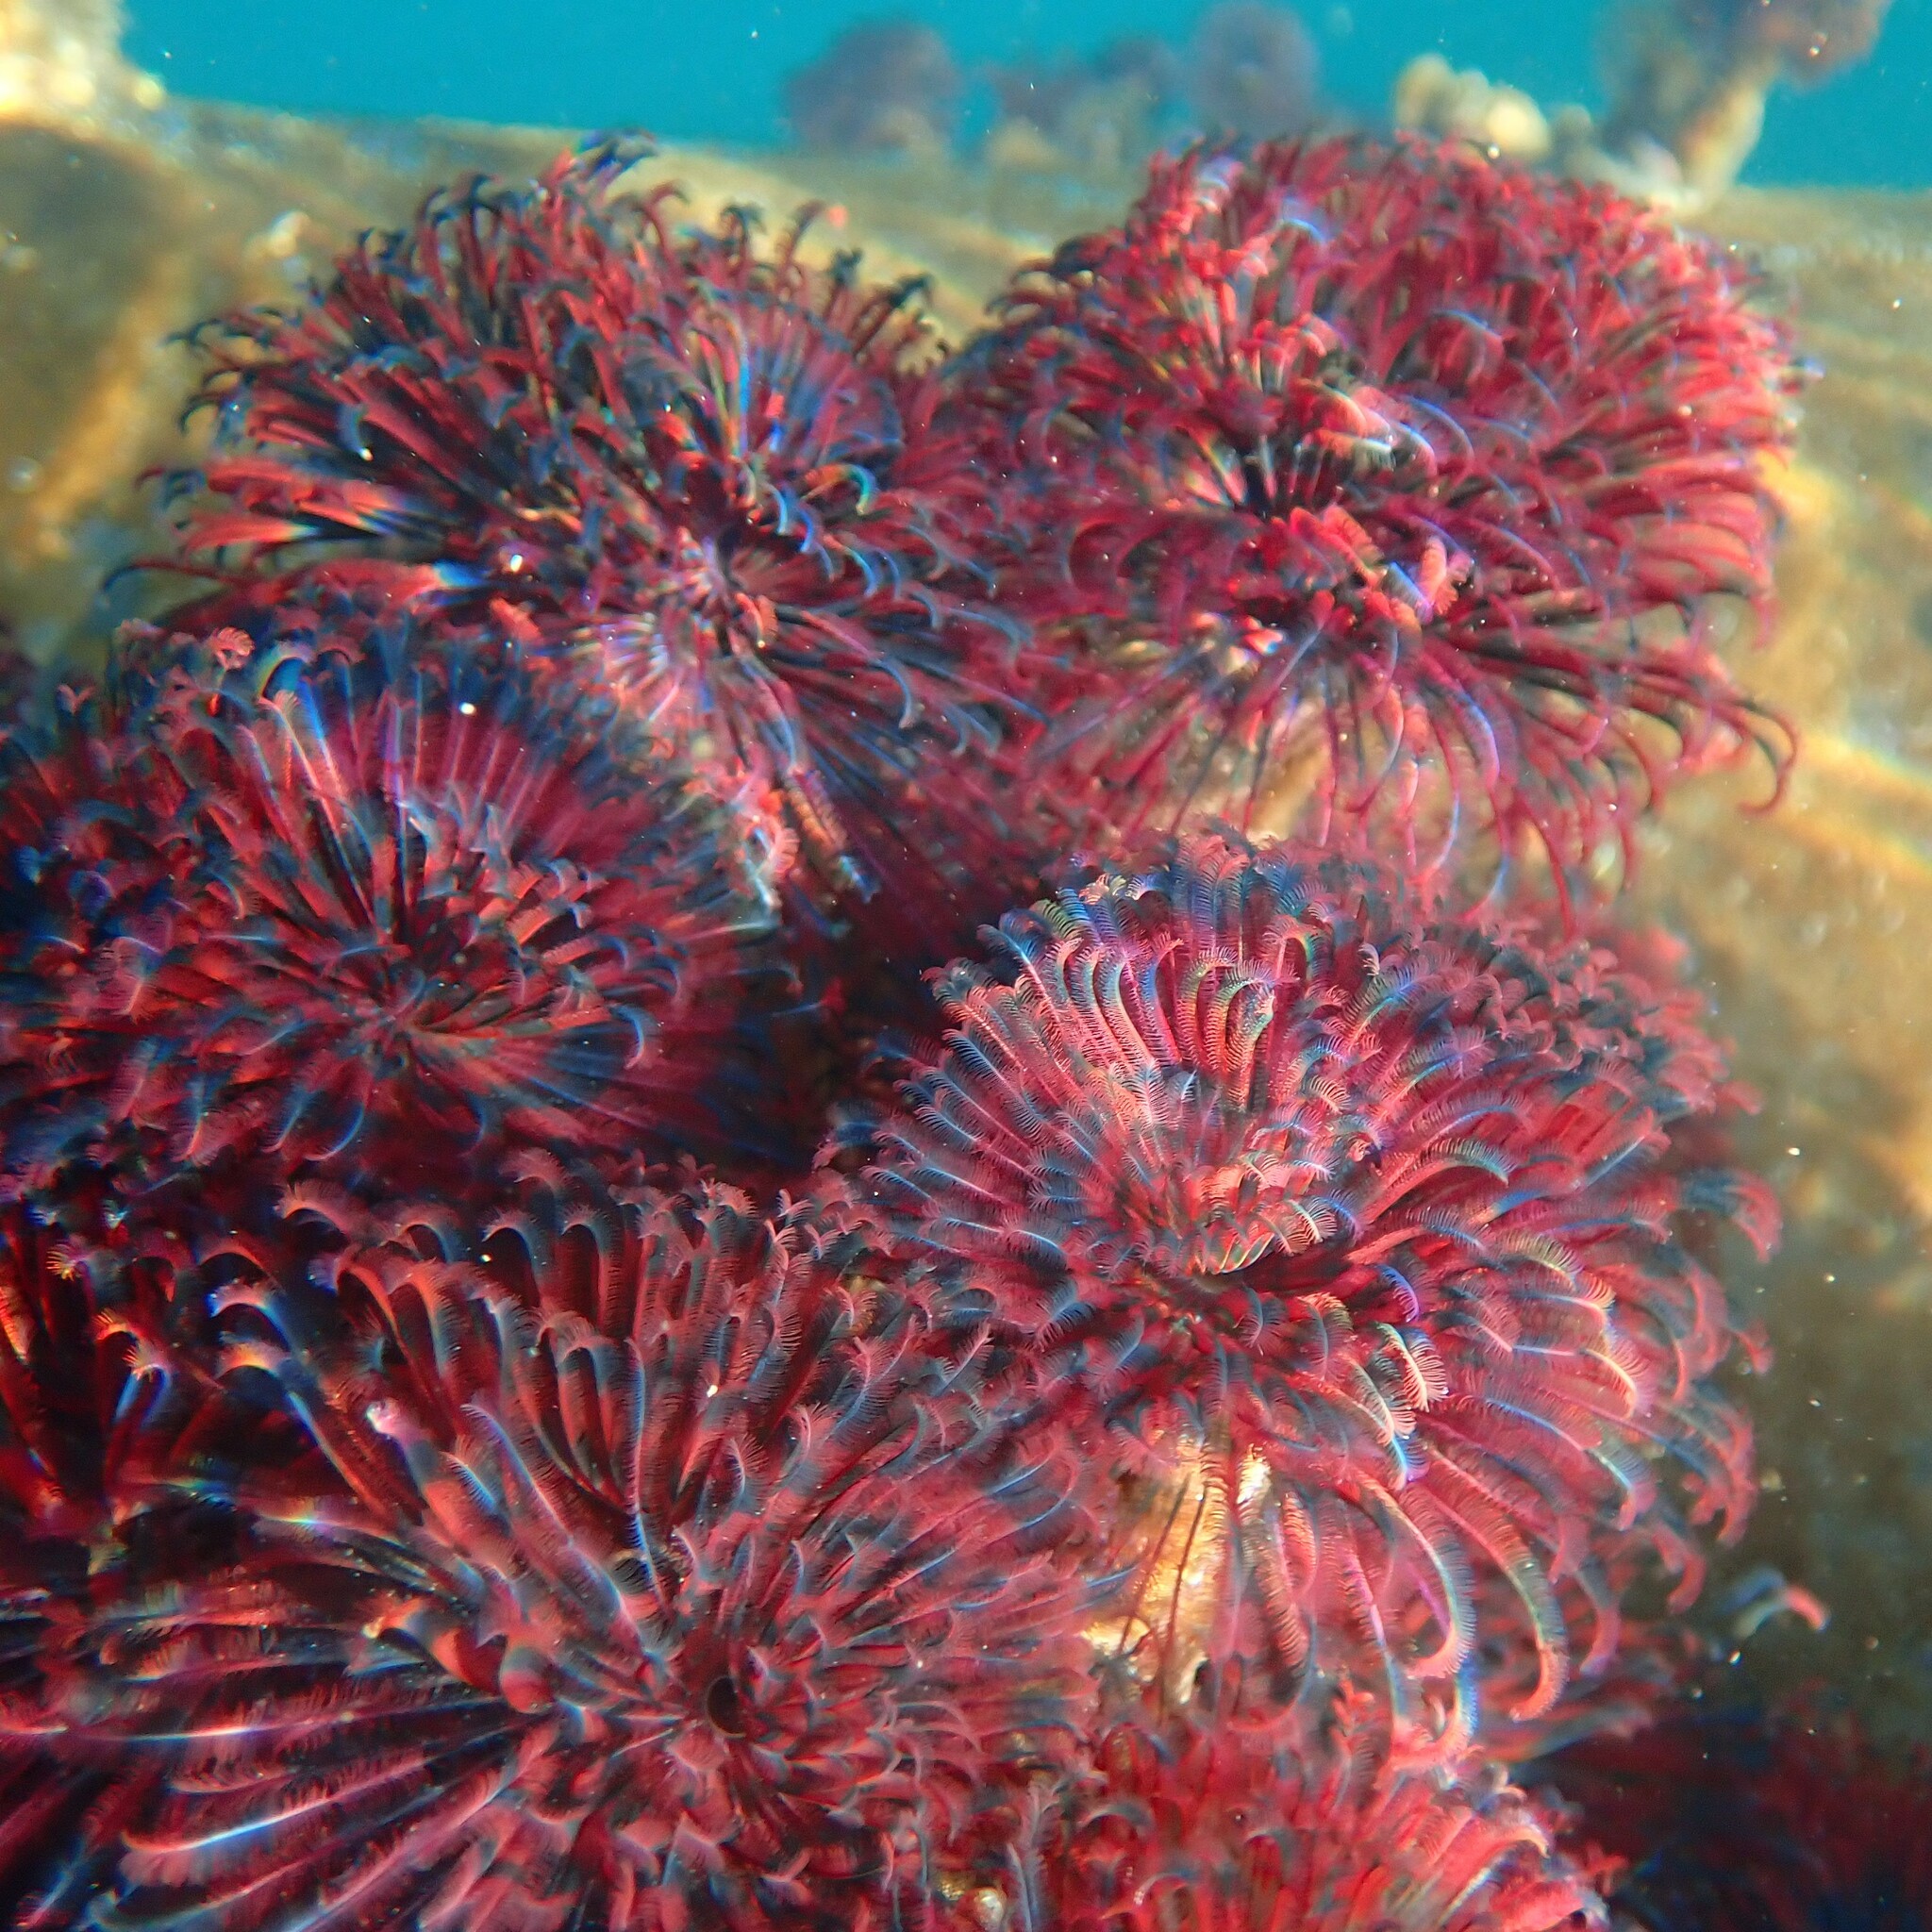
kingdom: Animalia
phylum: Annelida
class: Polychaeta
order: Sabellida
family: Sabellidae
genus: Eudistylia
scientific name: Eudistylia vancouveri
